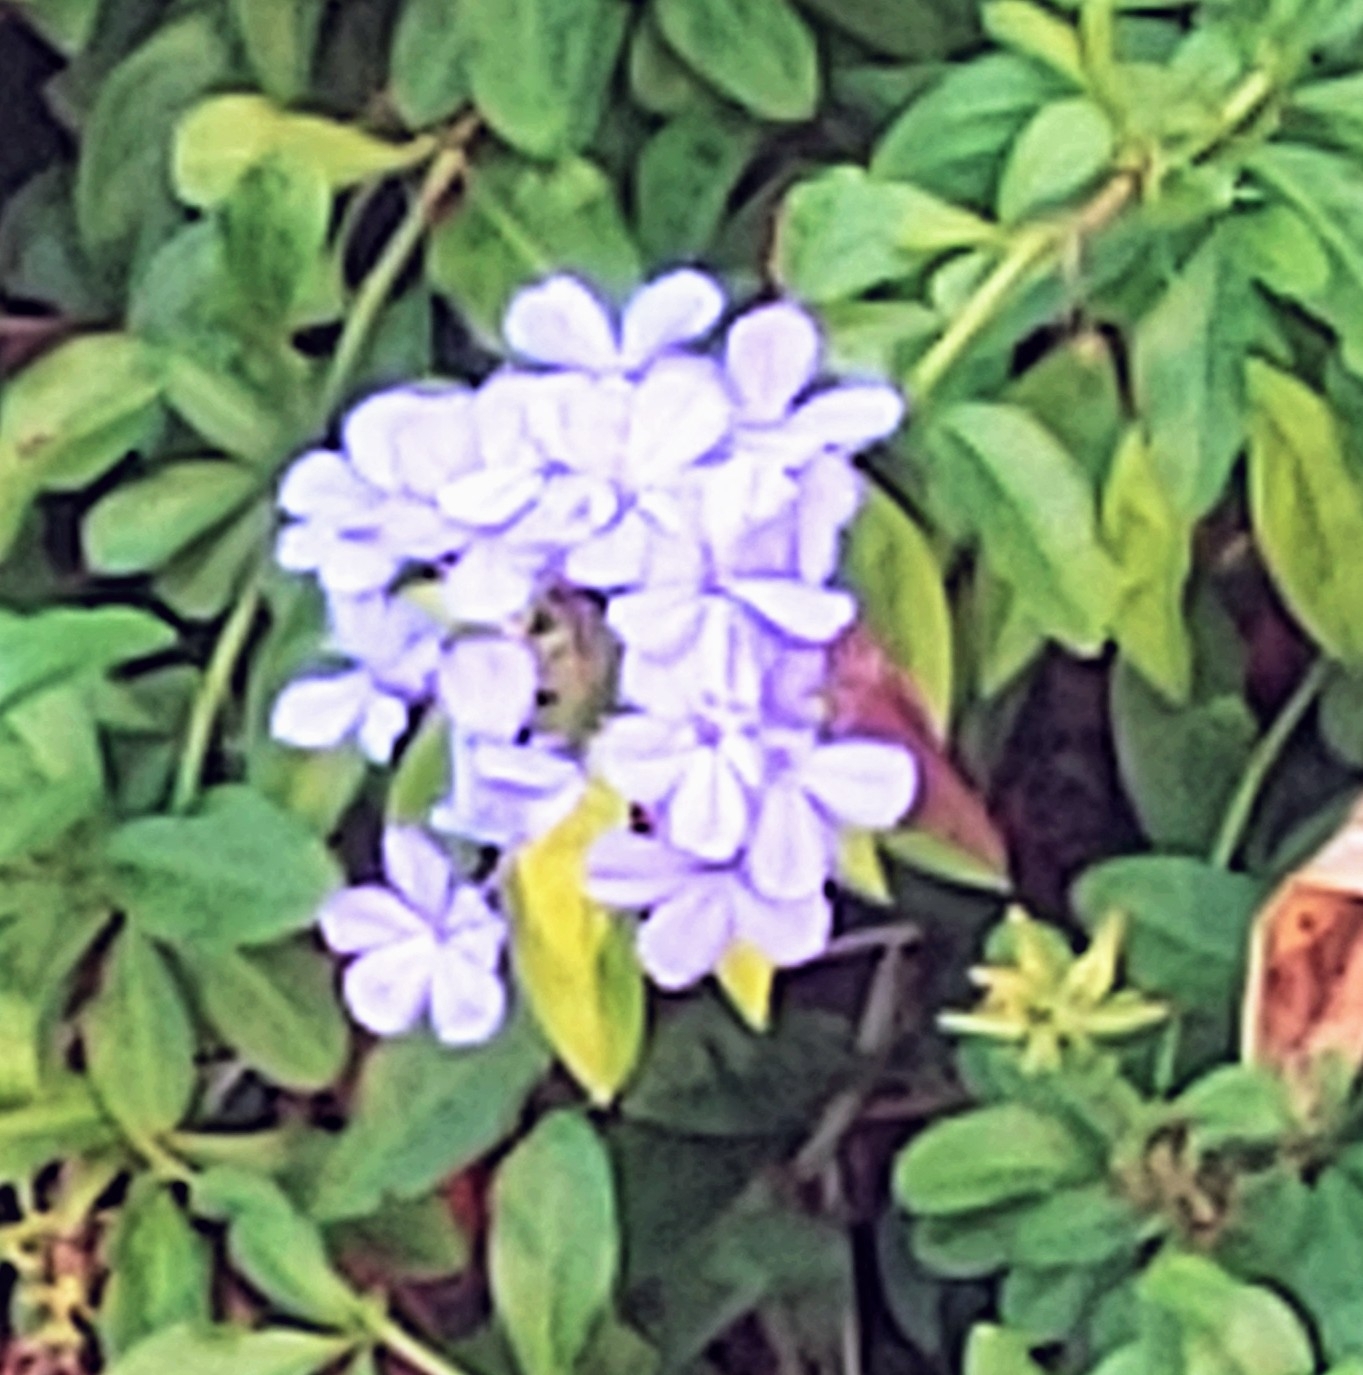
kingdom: Animalia
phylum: Arthropoda
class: Insecta
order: Lepidoptera
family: Hesperiidae
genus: Asbolis
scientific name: Asbolis capucinus
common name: Monk skipper
